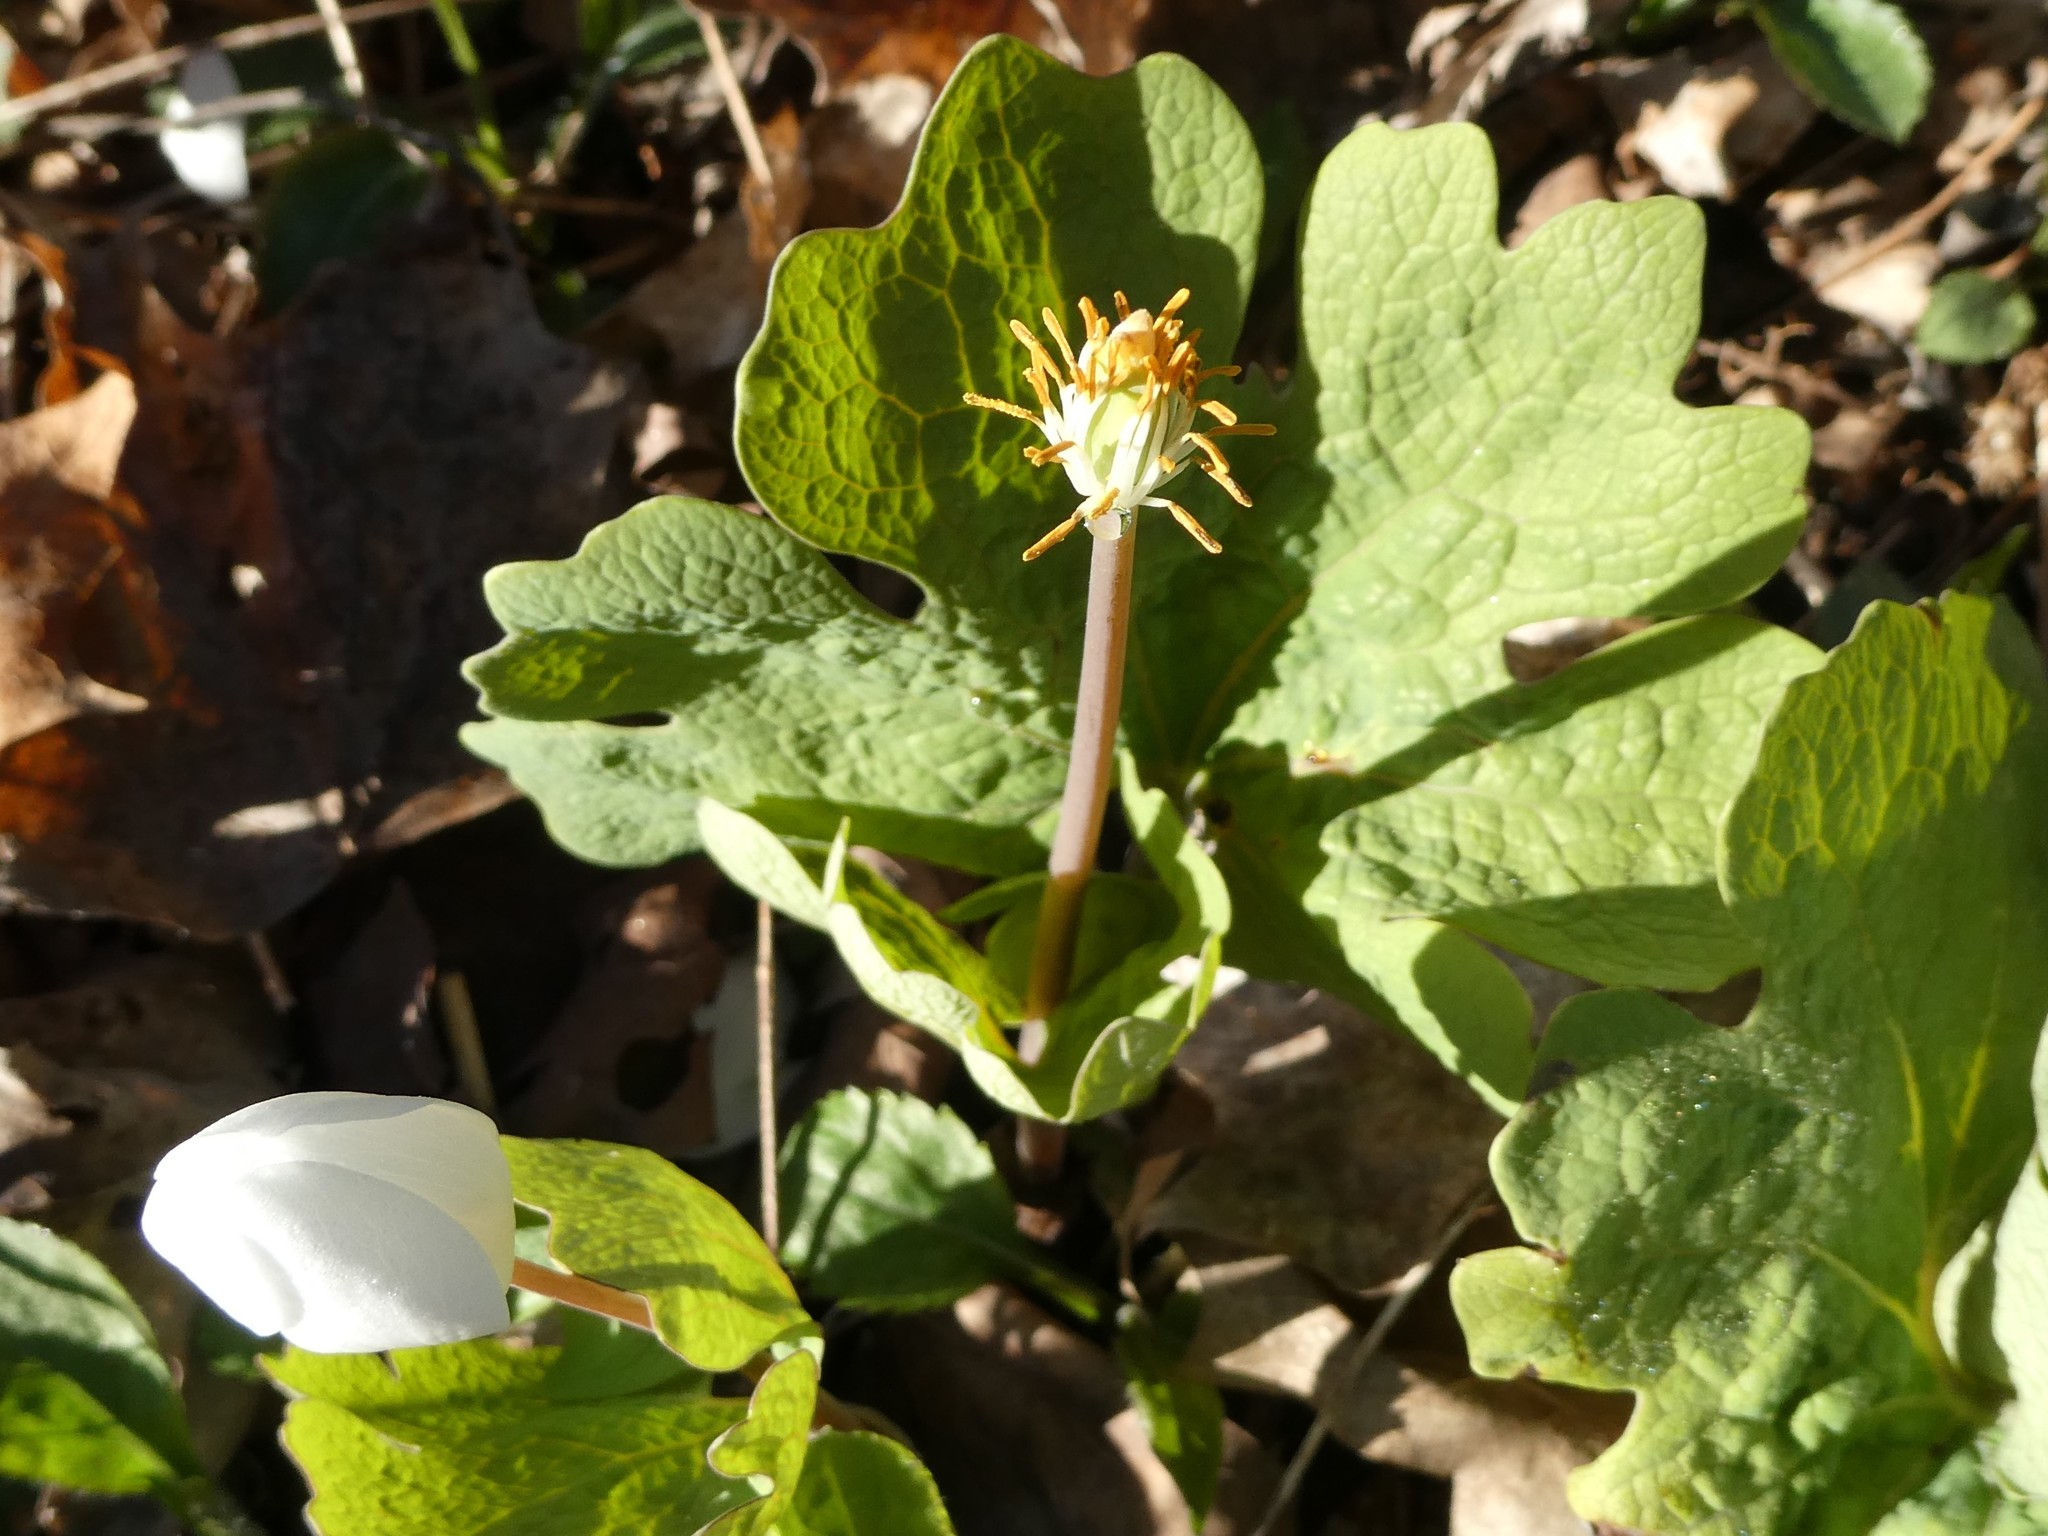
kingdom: Plantae
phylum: Tracheophyta
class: Magnoliopsida
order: Ranunculales
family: Papaveraceae
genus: Sanguinaria
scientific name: Sanguinaria canadensis
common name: Bloodroot
